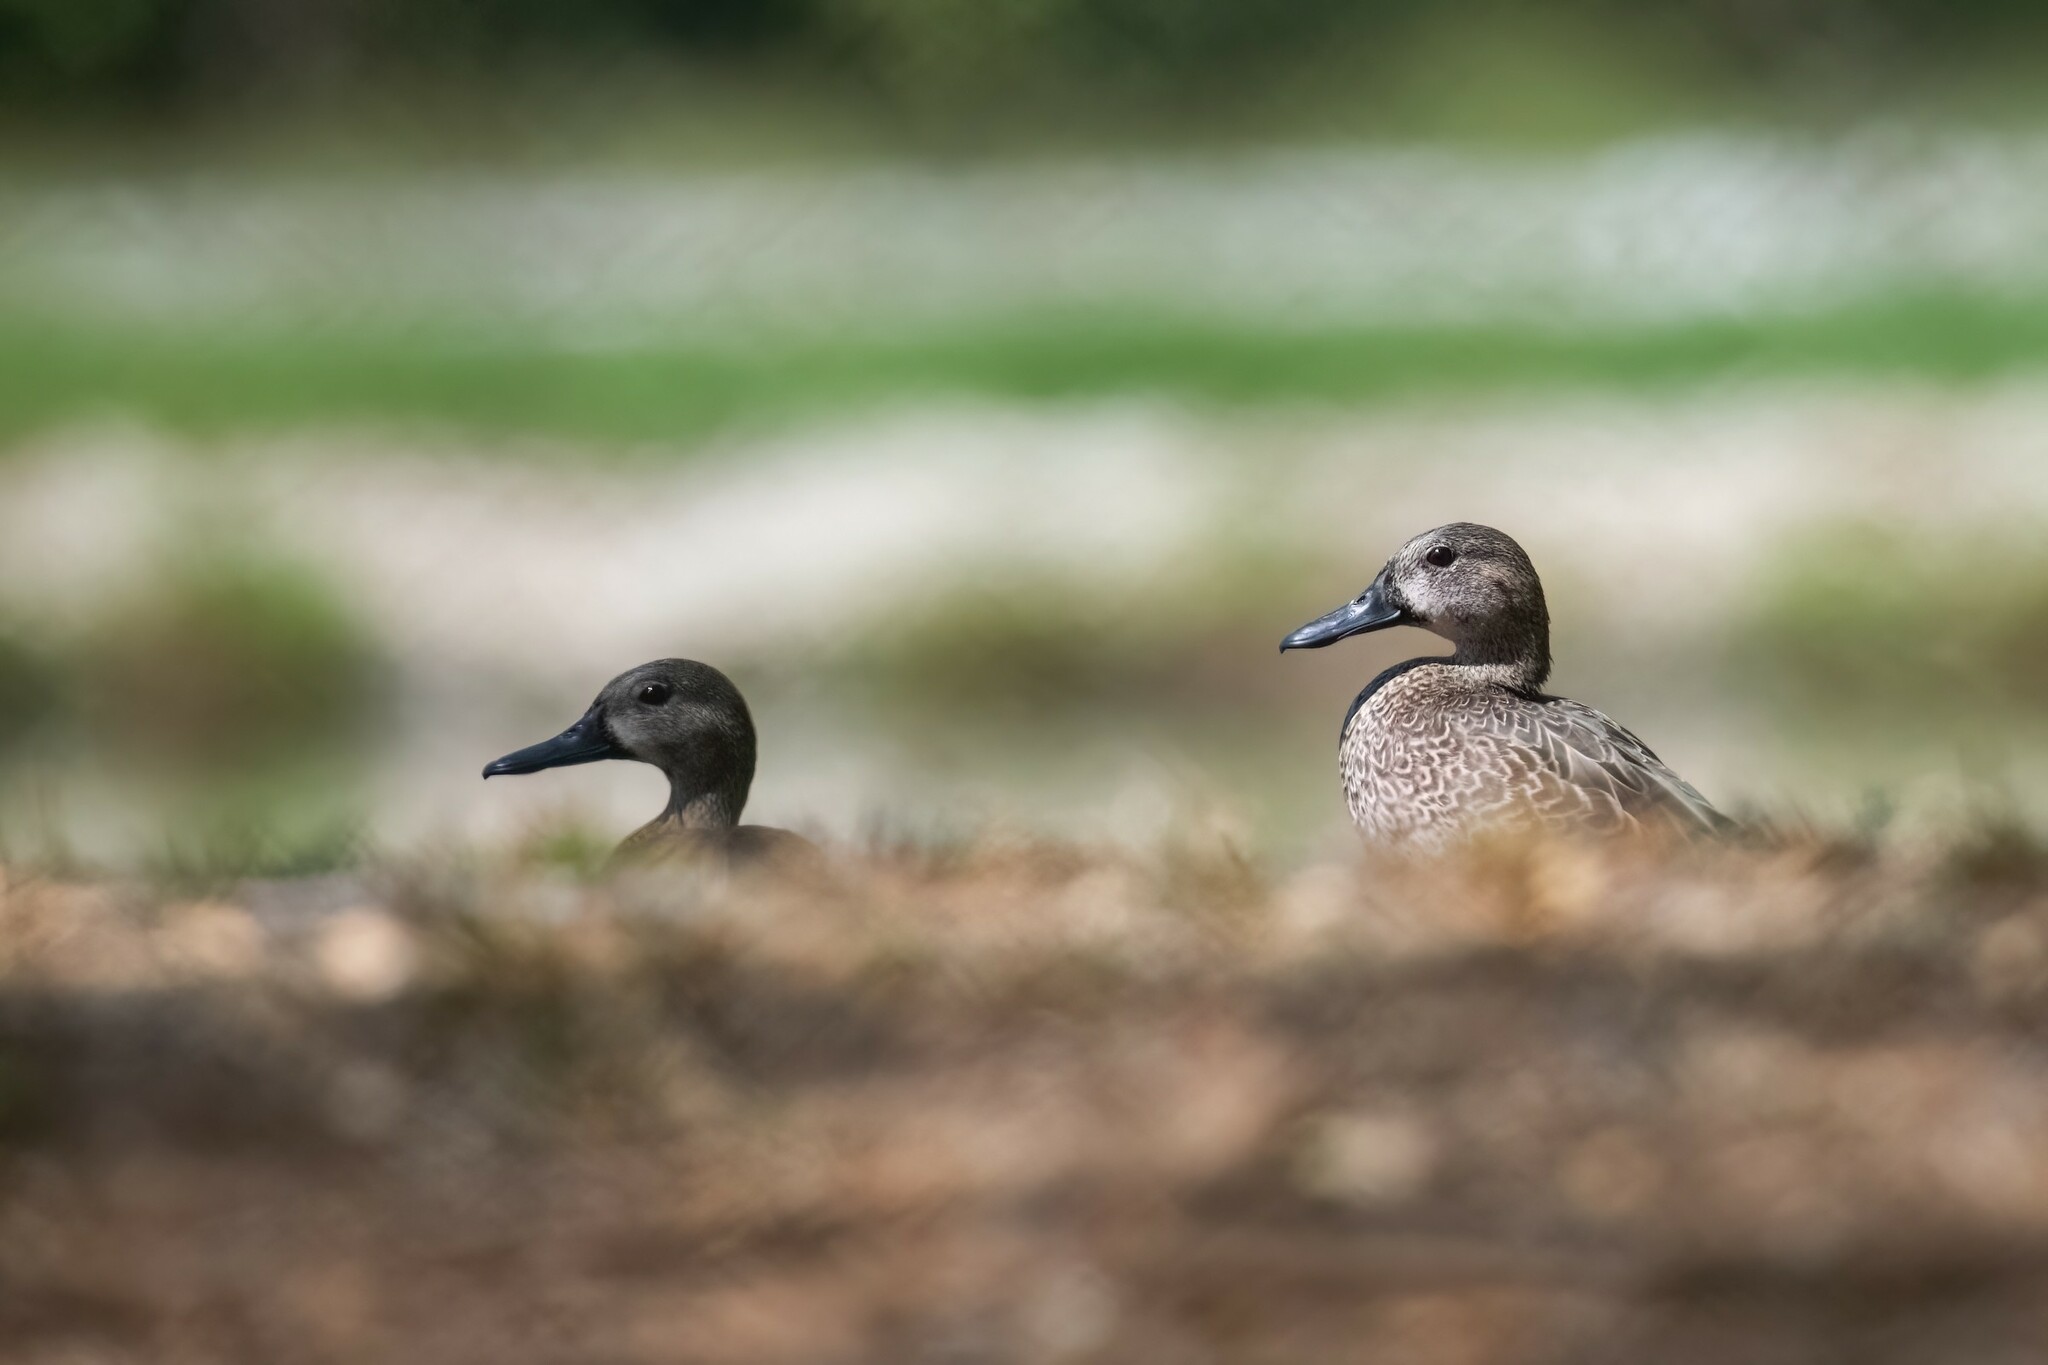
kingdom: Animalia
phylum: Chordata
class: Aves
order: Anseriformes
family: Anatidae
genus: Spatula
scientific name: Spatula discors
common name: Blue-winged teal
